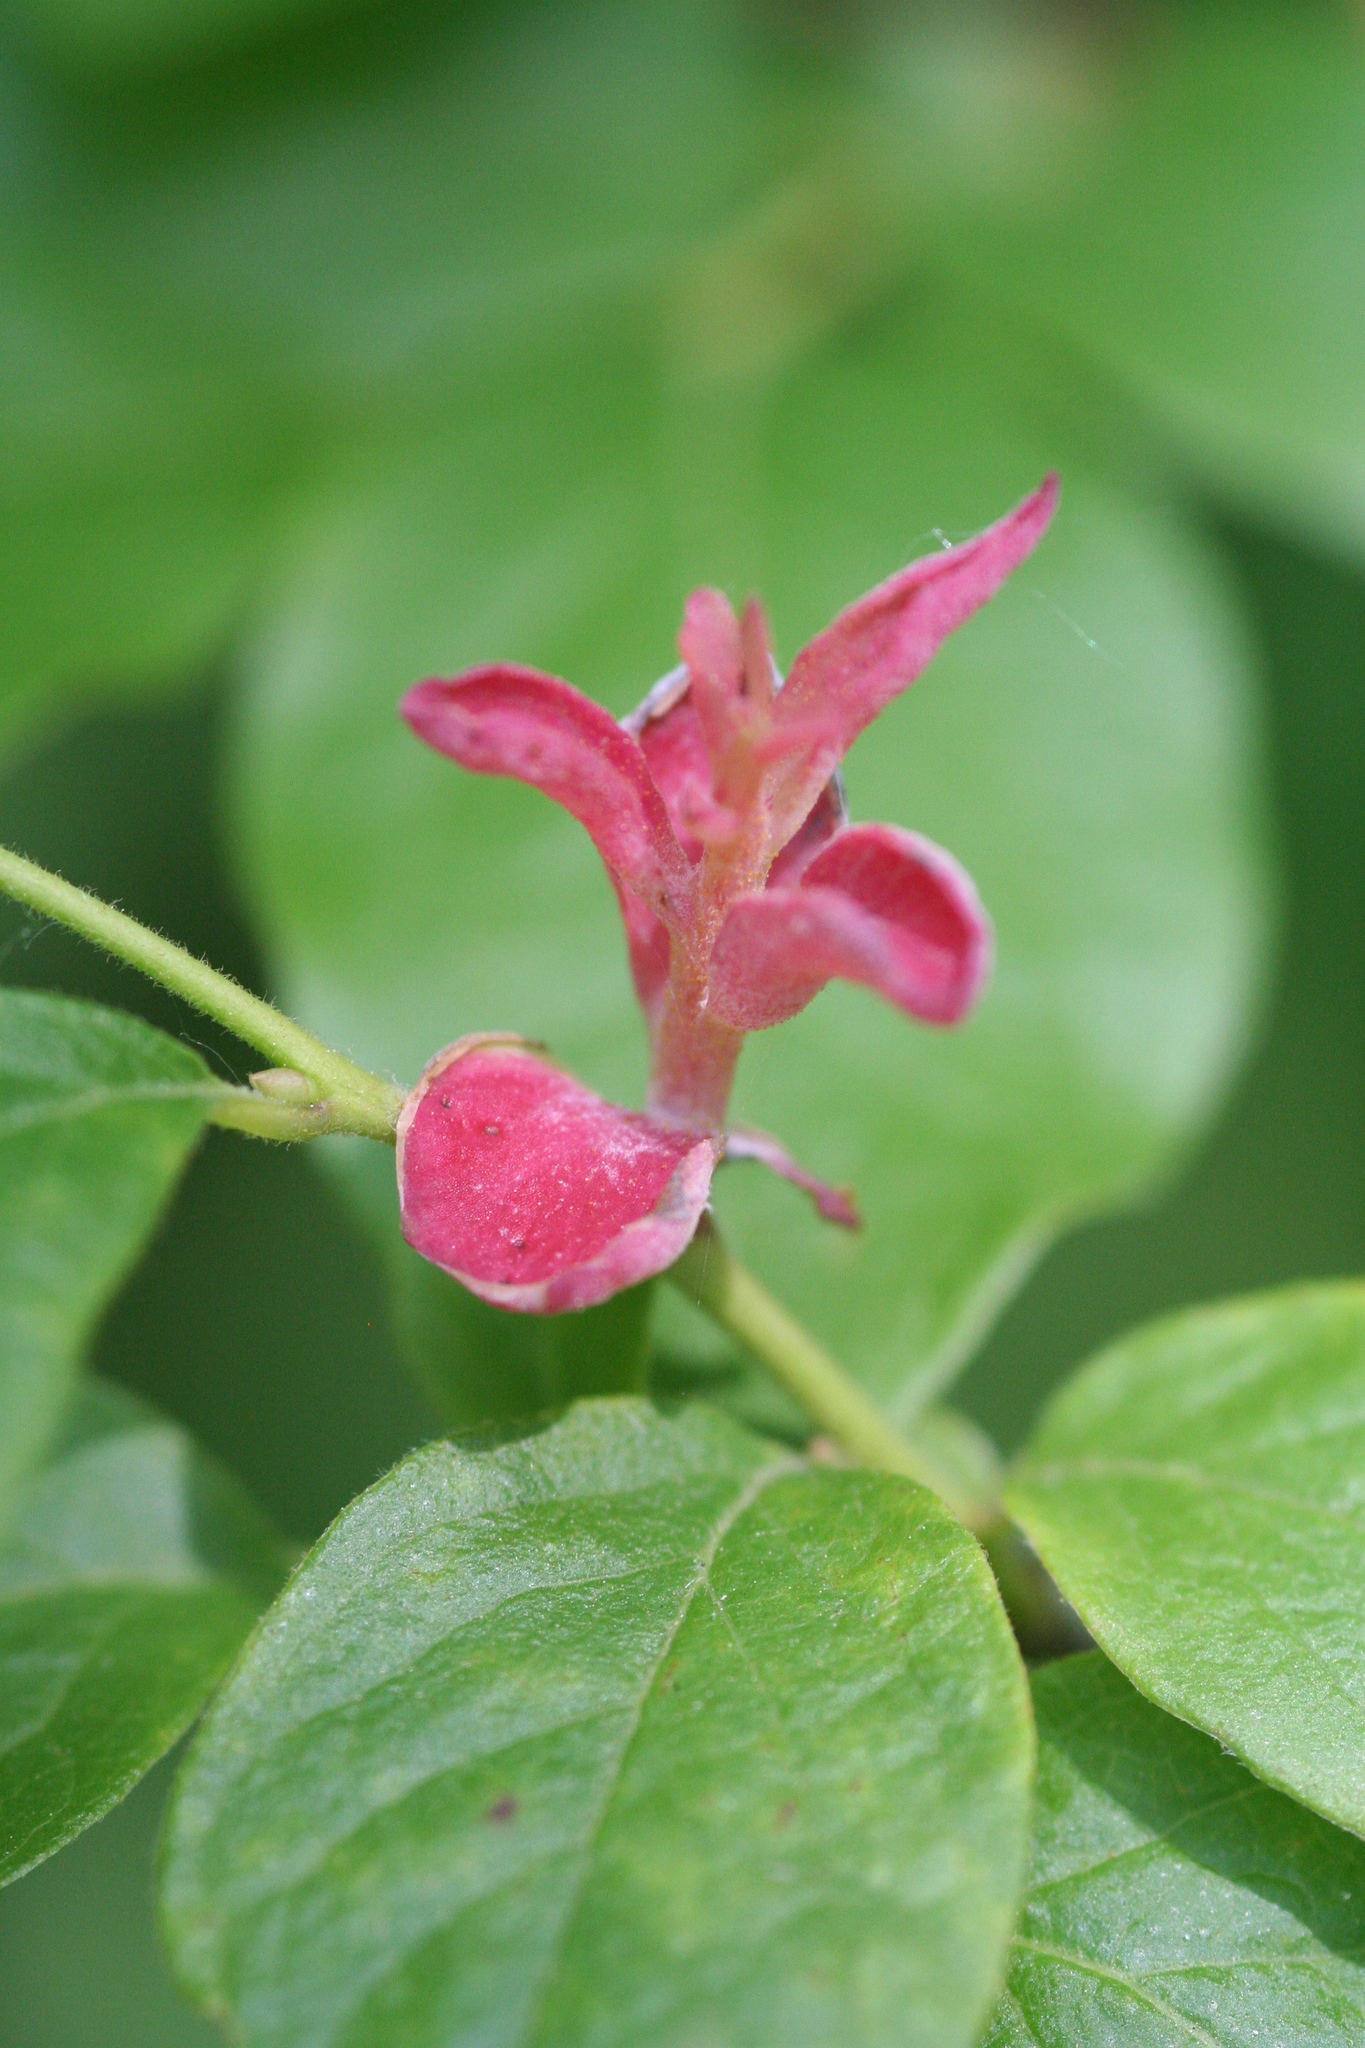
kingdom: Plantae
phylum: Tracheophyta
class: Magnoliopsida
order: Ericales
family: Ericaceae
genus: Vaccinium
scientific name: Vaccinium corymbosum
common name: Blueberry
